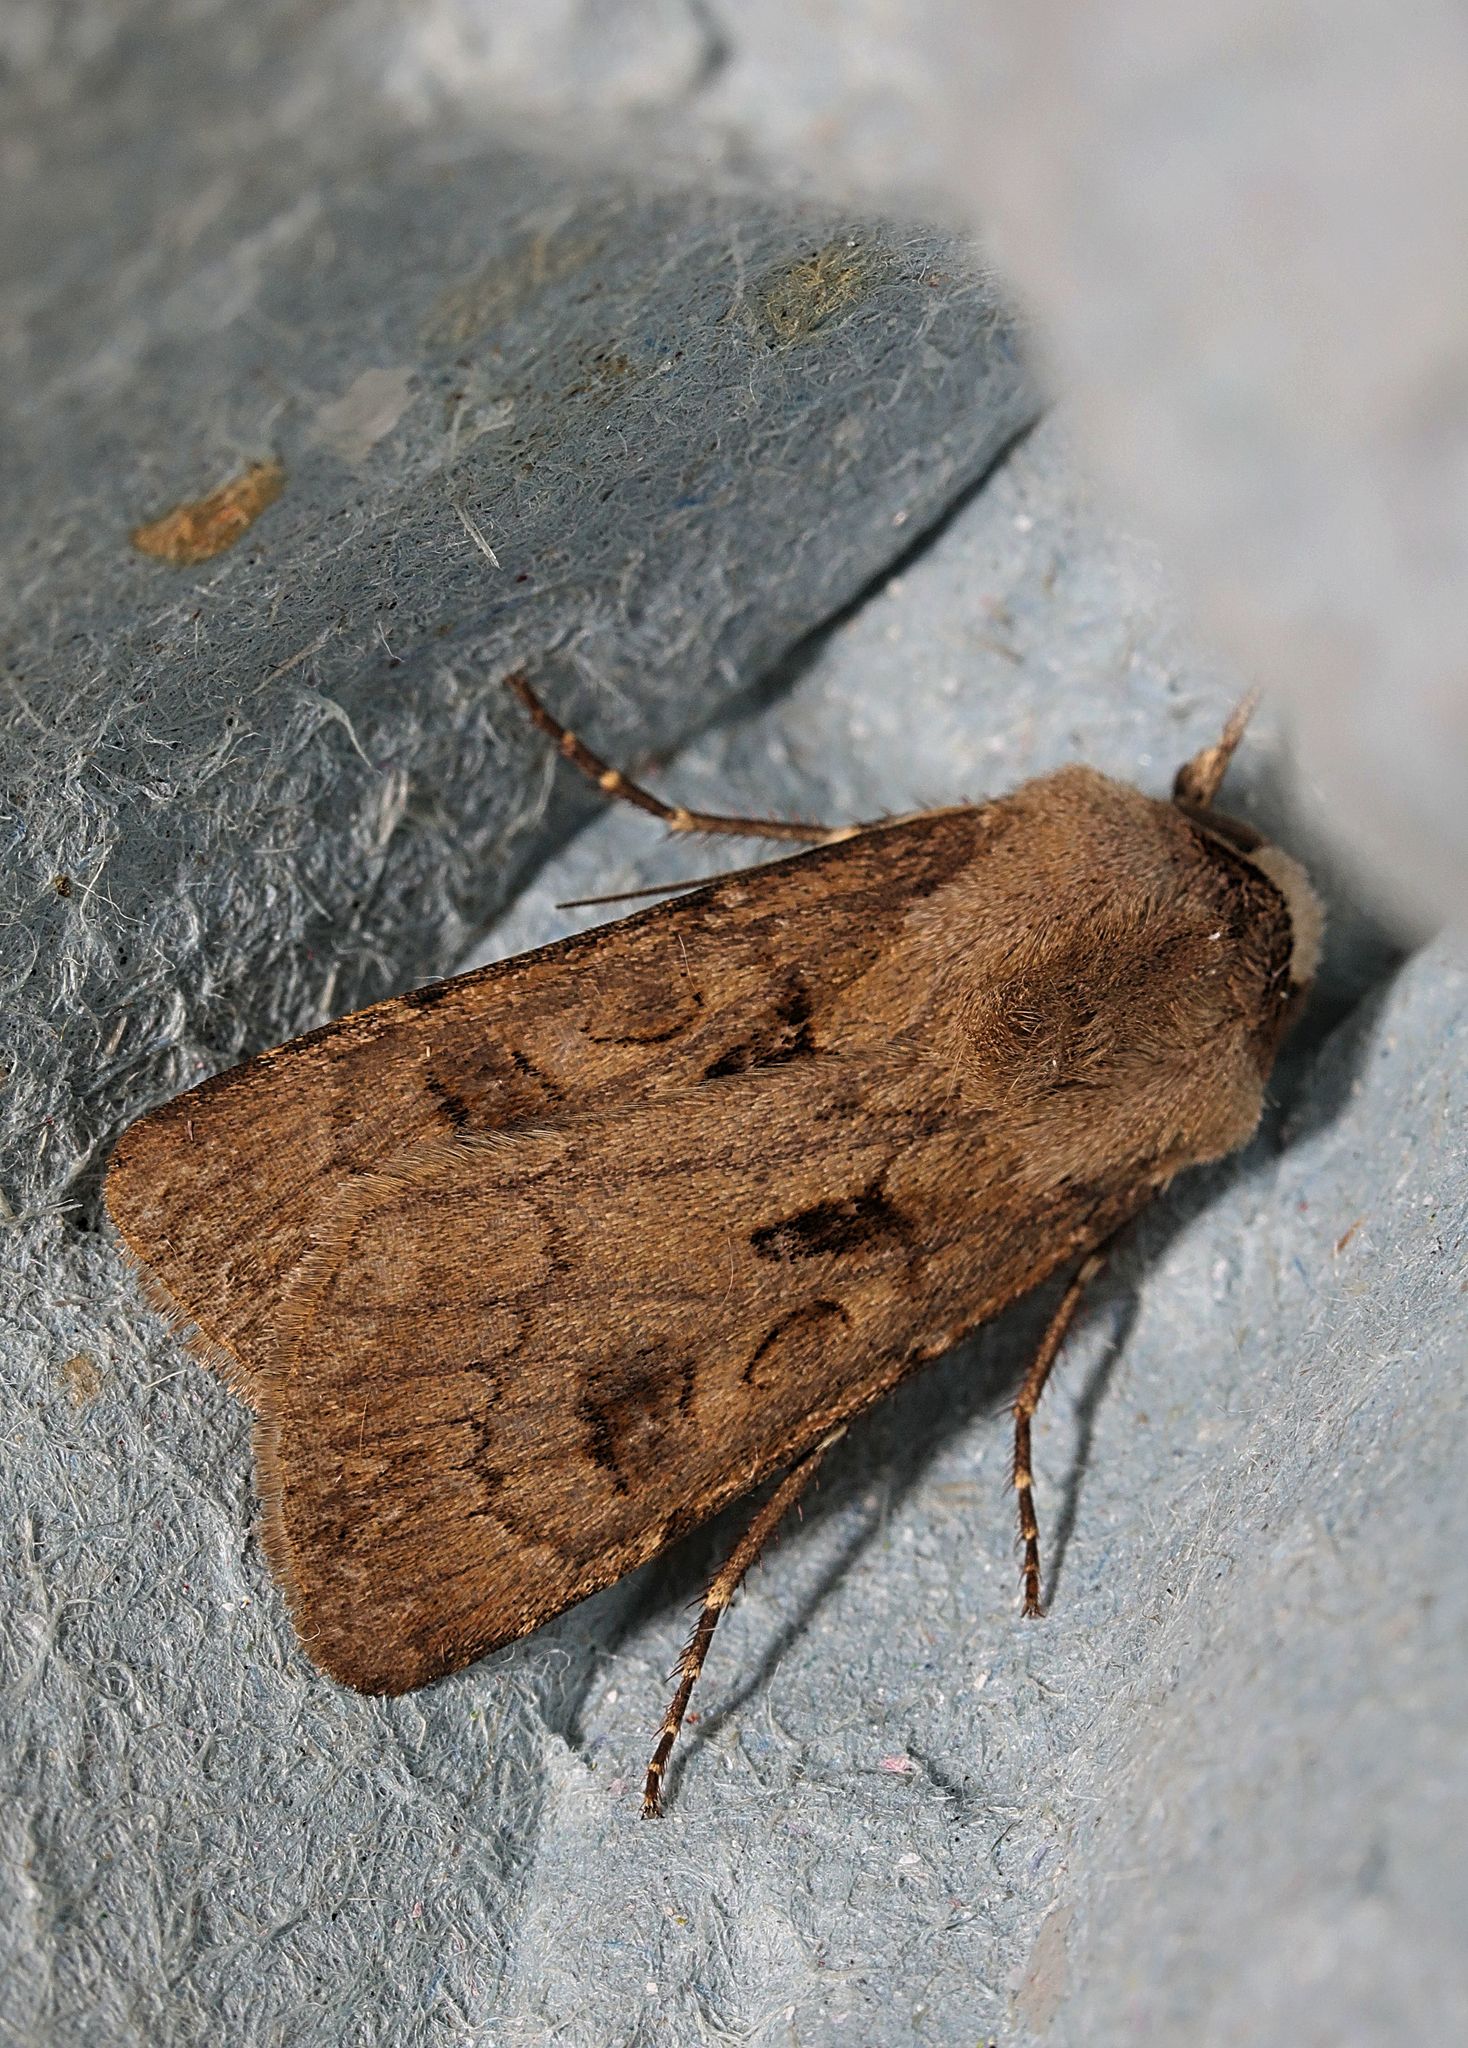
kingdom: Animalia
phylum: Arthropoda
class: Insecta
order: Lepidoptera
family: Noctuidae
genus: Agrotis
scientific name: Agrotis exclamationis
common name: Heart and dart
